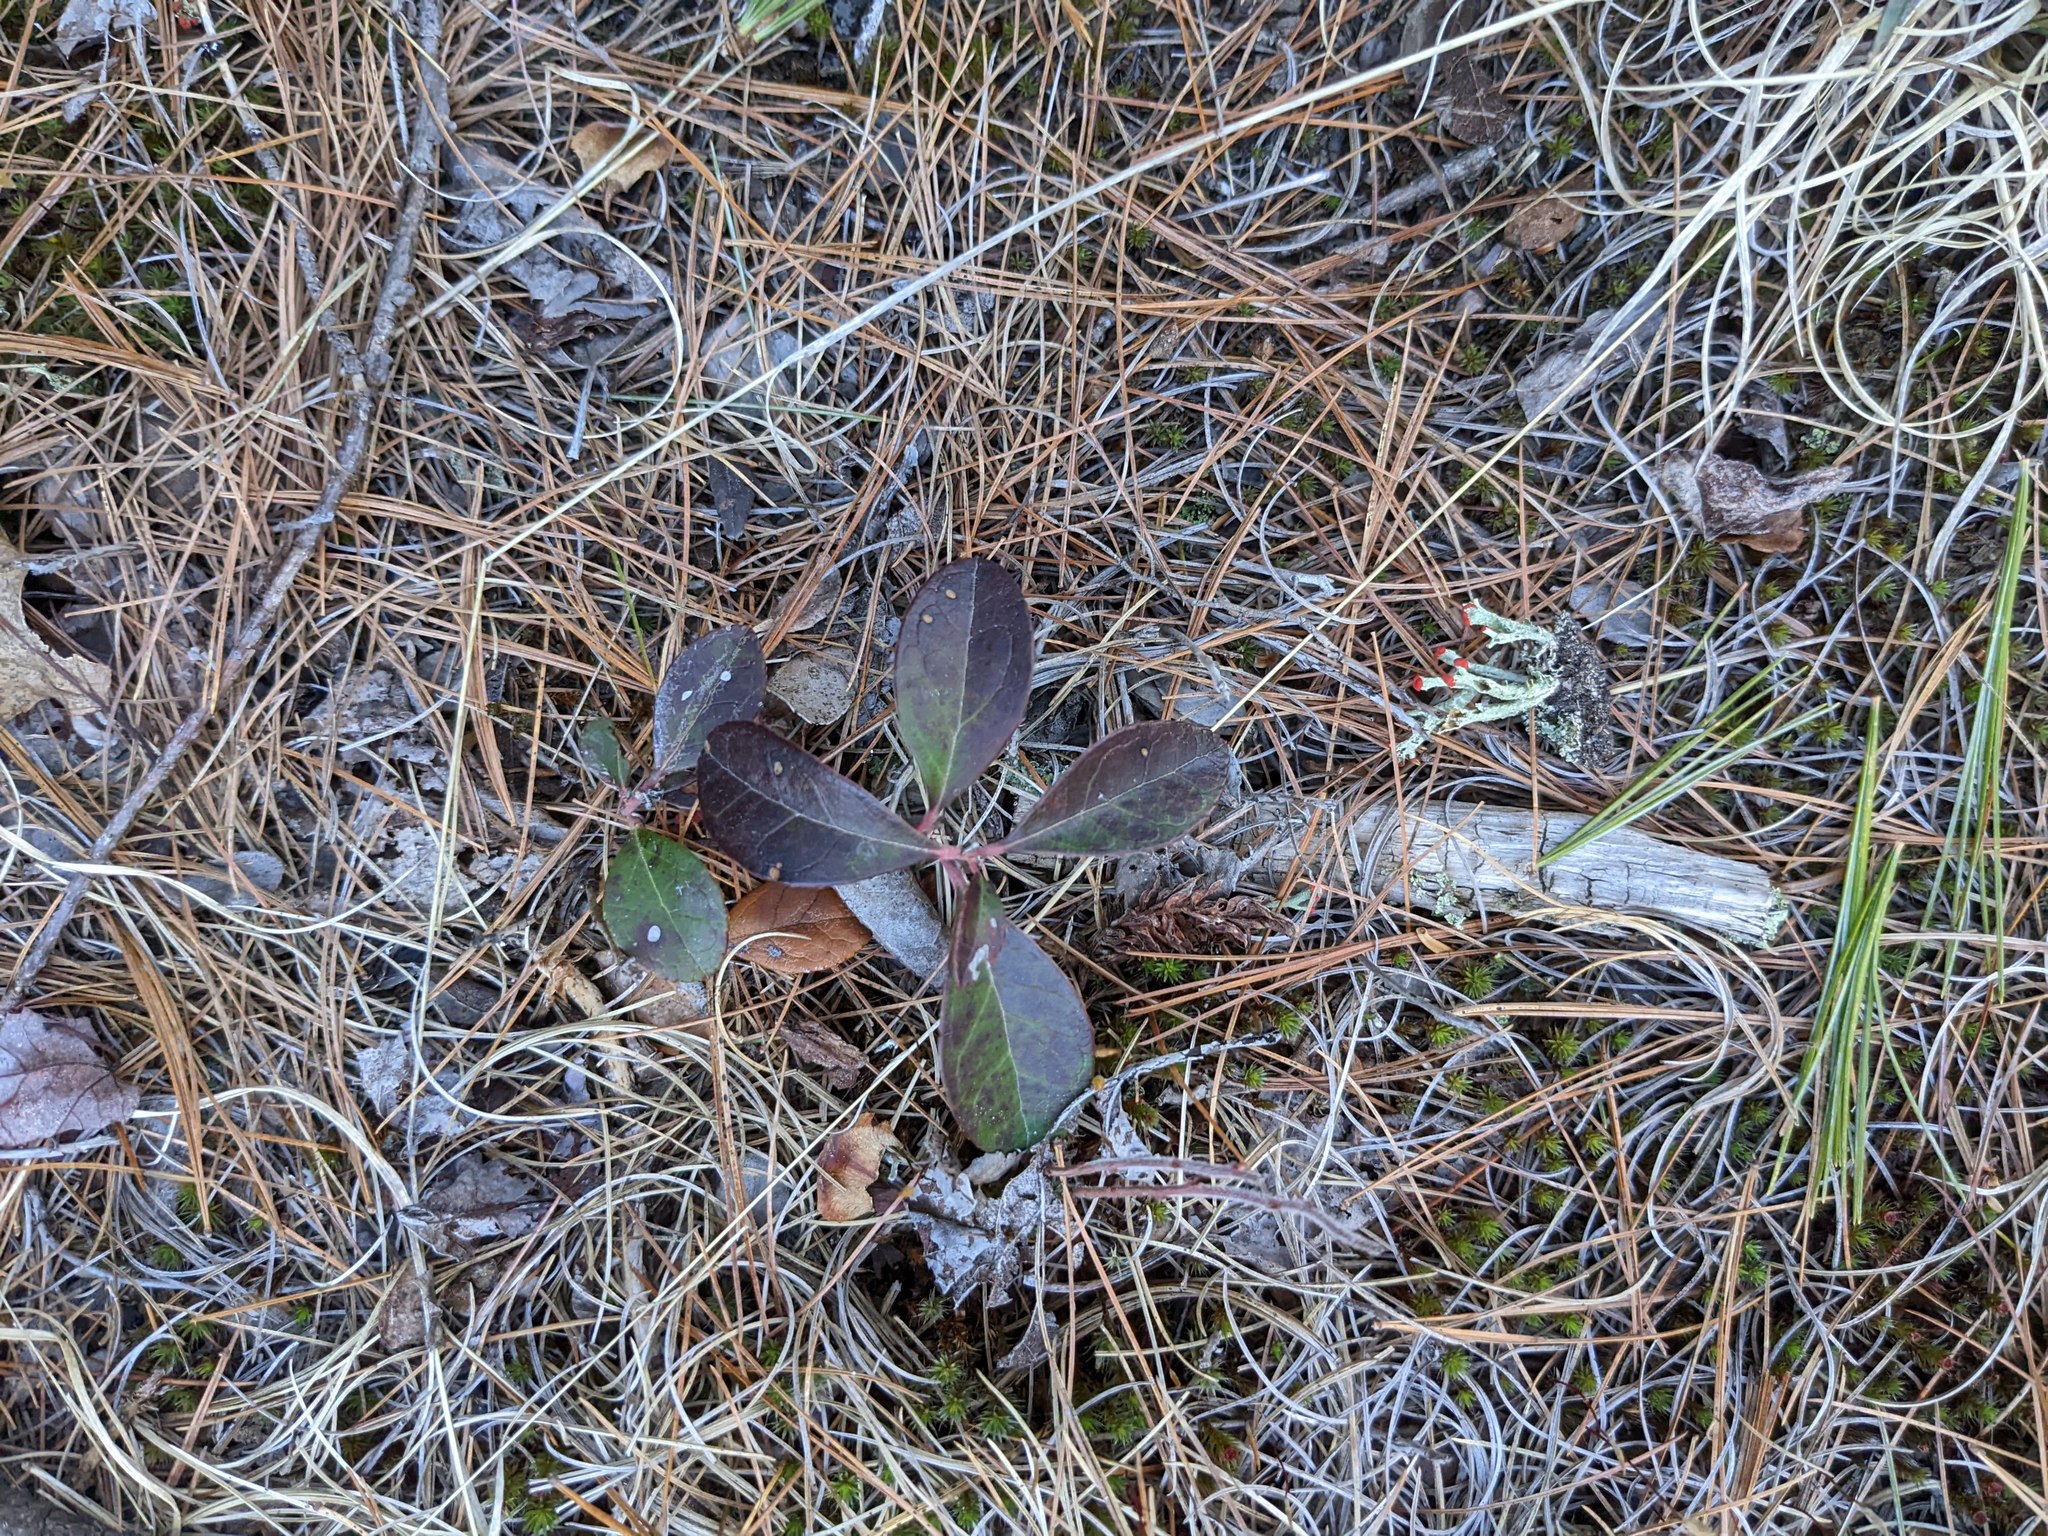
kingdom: Plantae
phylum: Tracheophyta
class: Magnoliopsida
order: Ericales
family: Ericaceae
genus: Gaultheria
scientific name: Gaultheria procumbens
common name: Checkerberry
